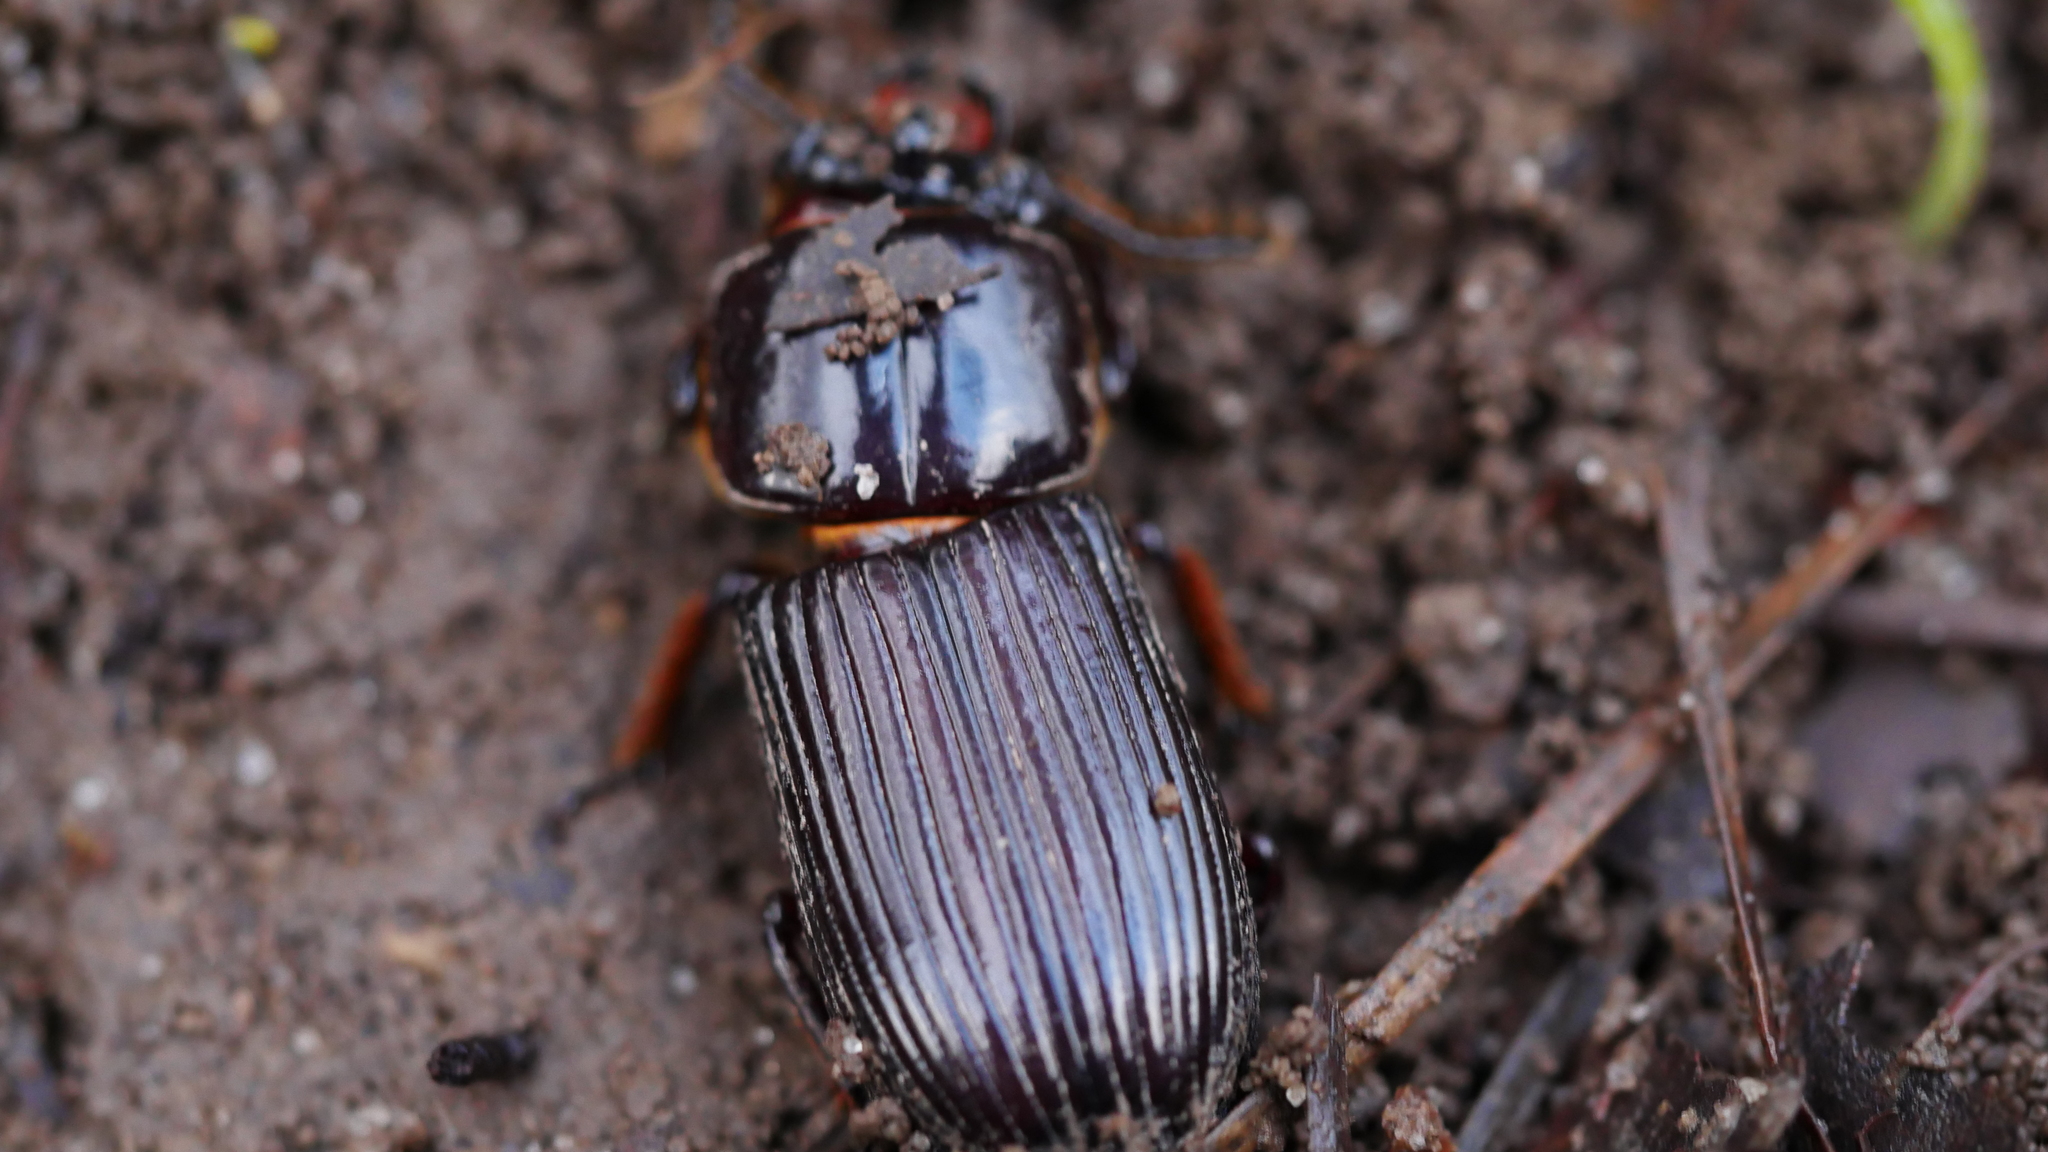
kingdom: Animalia
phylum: Arthropoda
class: Insecta
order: Coleoptera
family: Passalidae
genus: Odontotaenius
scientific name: Odontotaenius disjunctus
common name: Patent leather beetle
